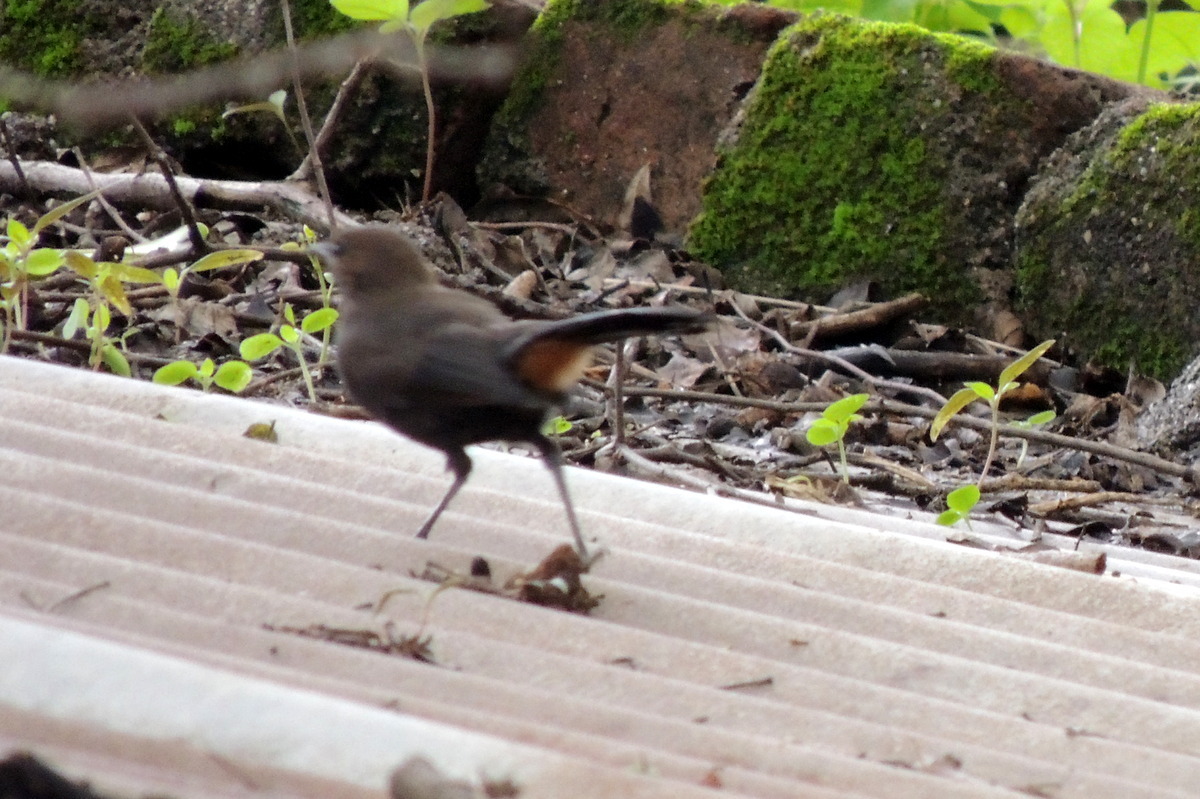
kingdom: Animalia
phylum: Chordata
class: Aves
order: Passeriformes
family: Muscicapidae
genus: Saxicoloides
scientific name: Saxicoloides fulicatus
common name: Indian robin
